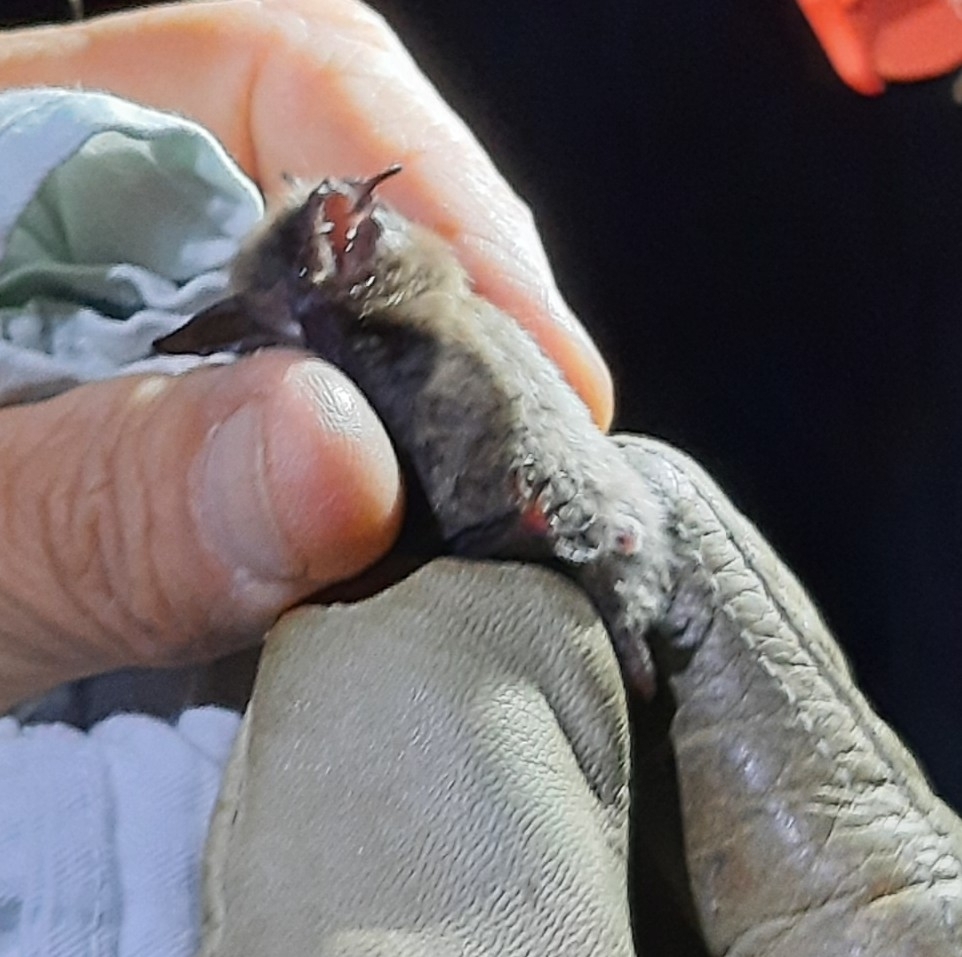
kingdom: Animalia
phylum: Chordata
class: Mammalia
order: Chiroptera
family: Vespertilionidae
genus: Myotis
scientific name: Myotis brandtii
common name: Brandt's myotis
